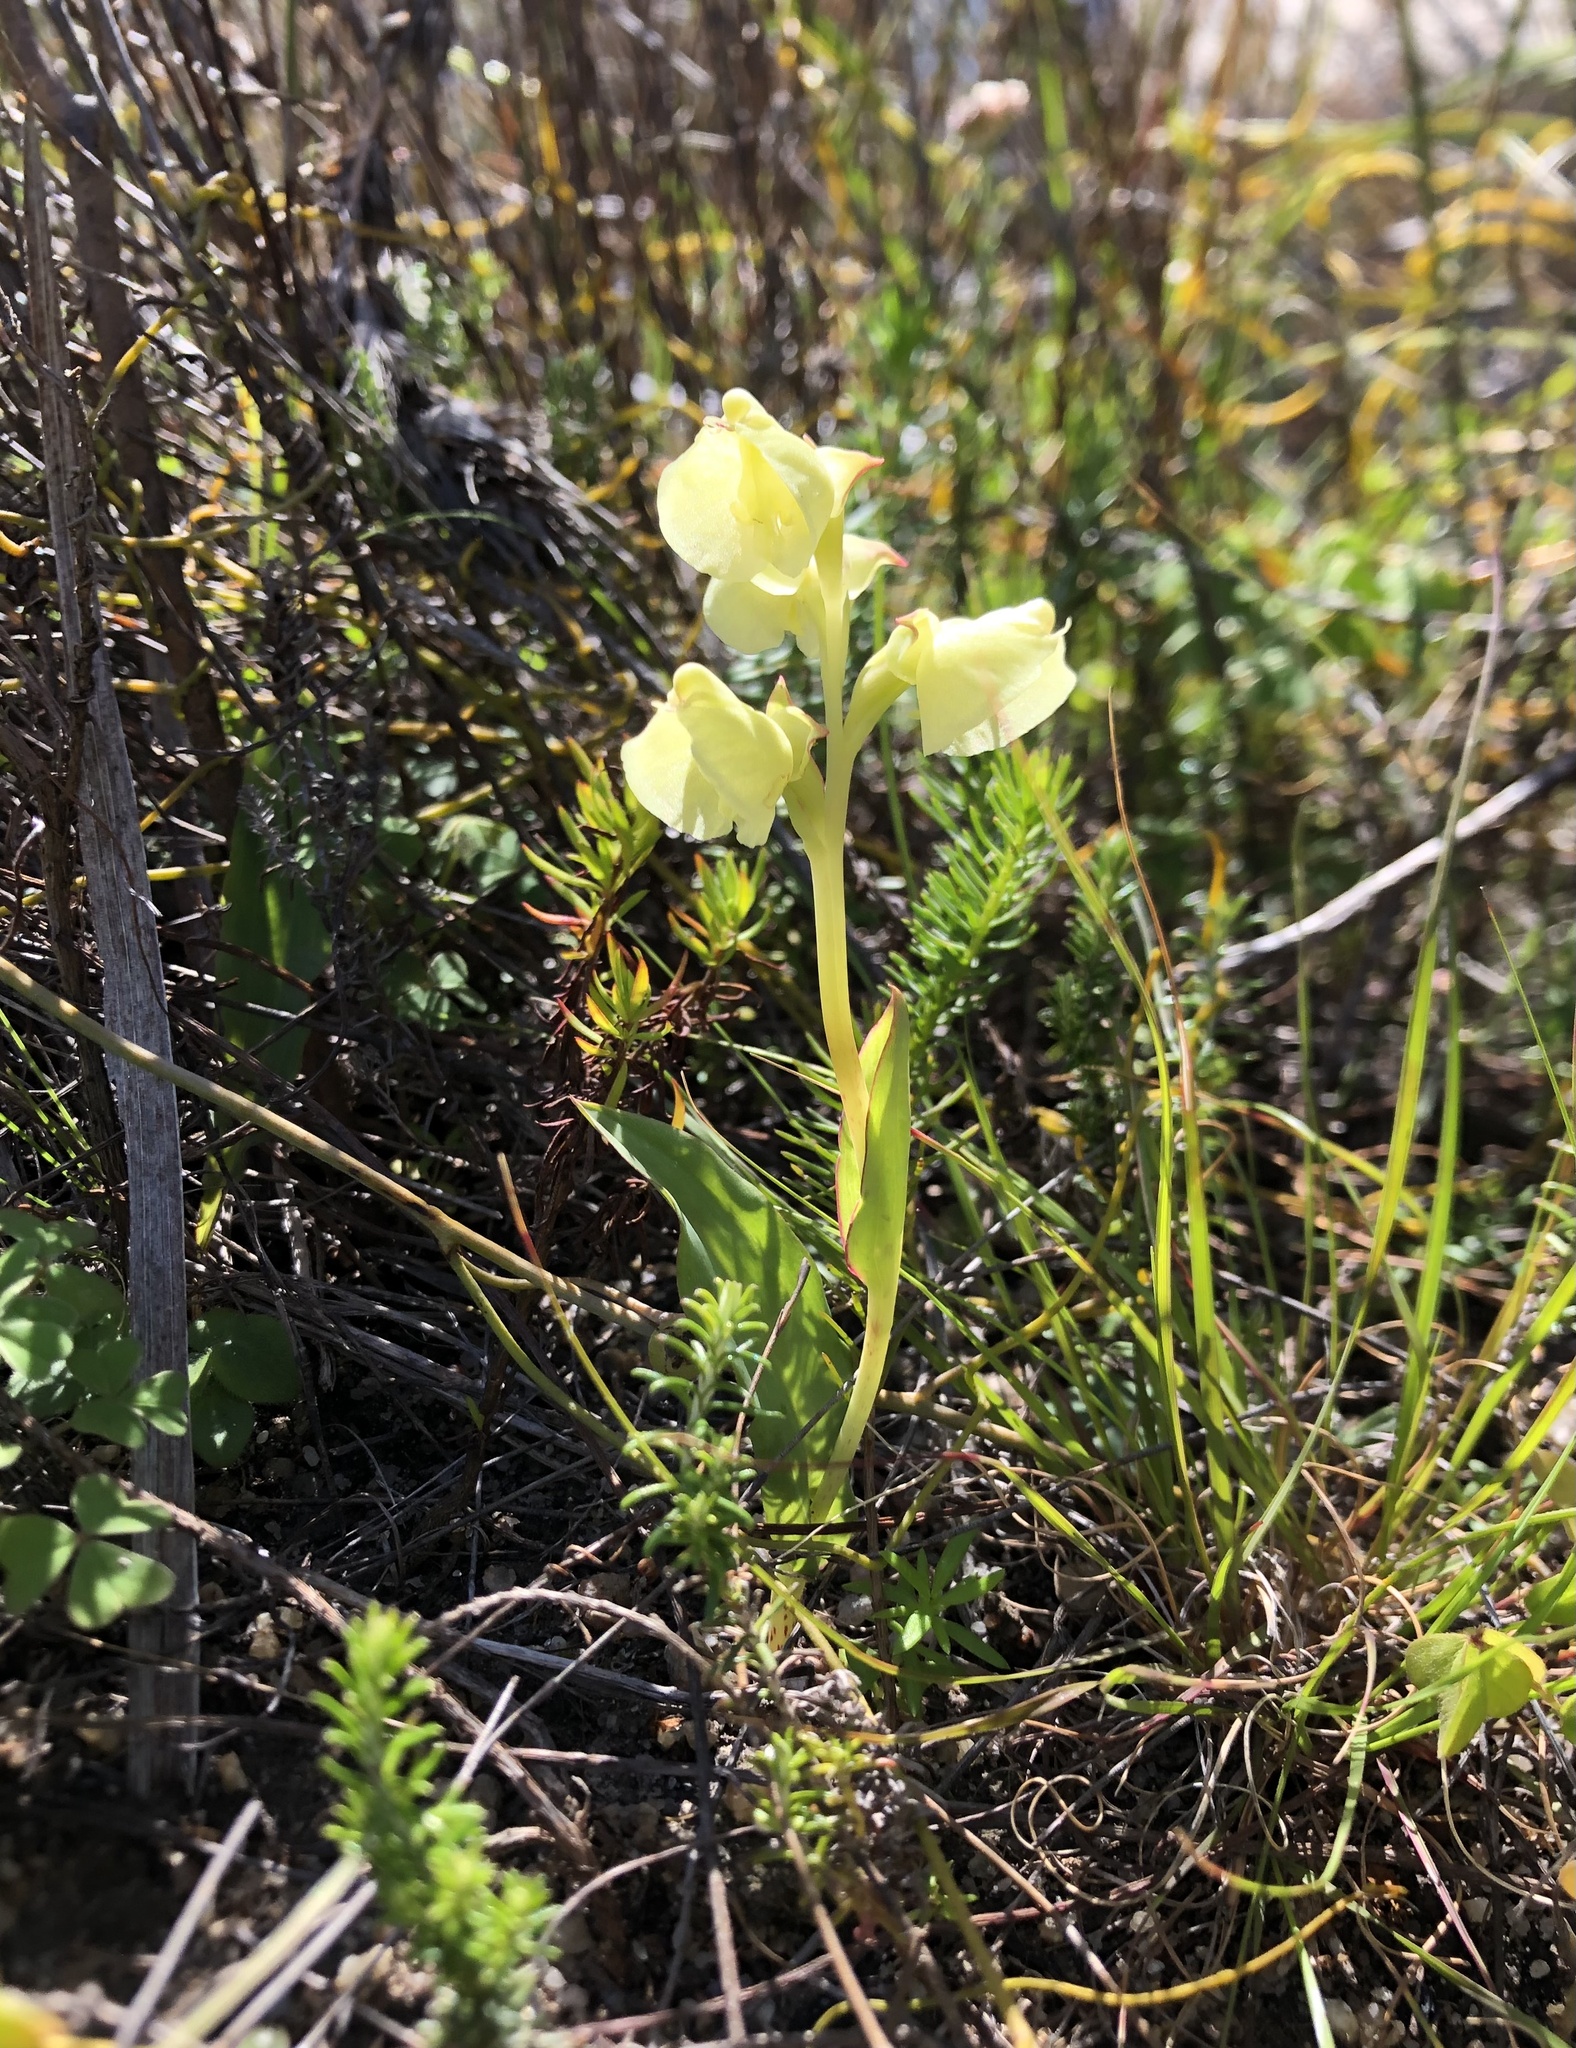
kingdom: Plantae
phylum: Tracheophyta
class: Liliopsida
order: Asparagales
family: Orchidaceae
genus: Pterygodium
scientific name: Pterygodium catholicum
